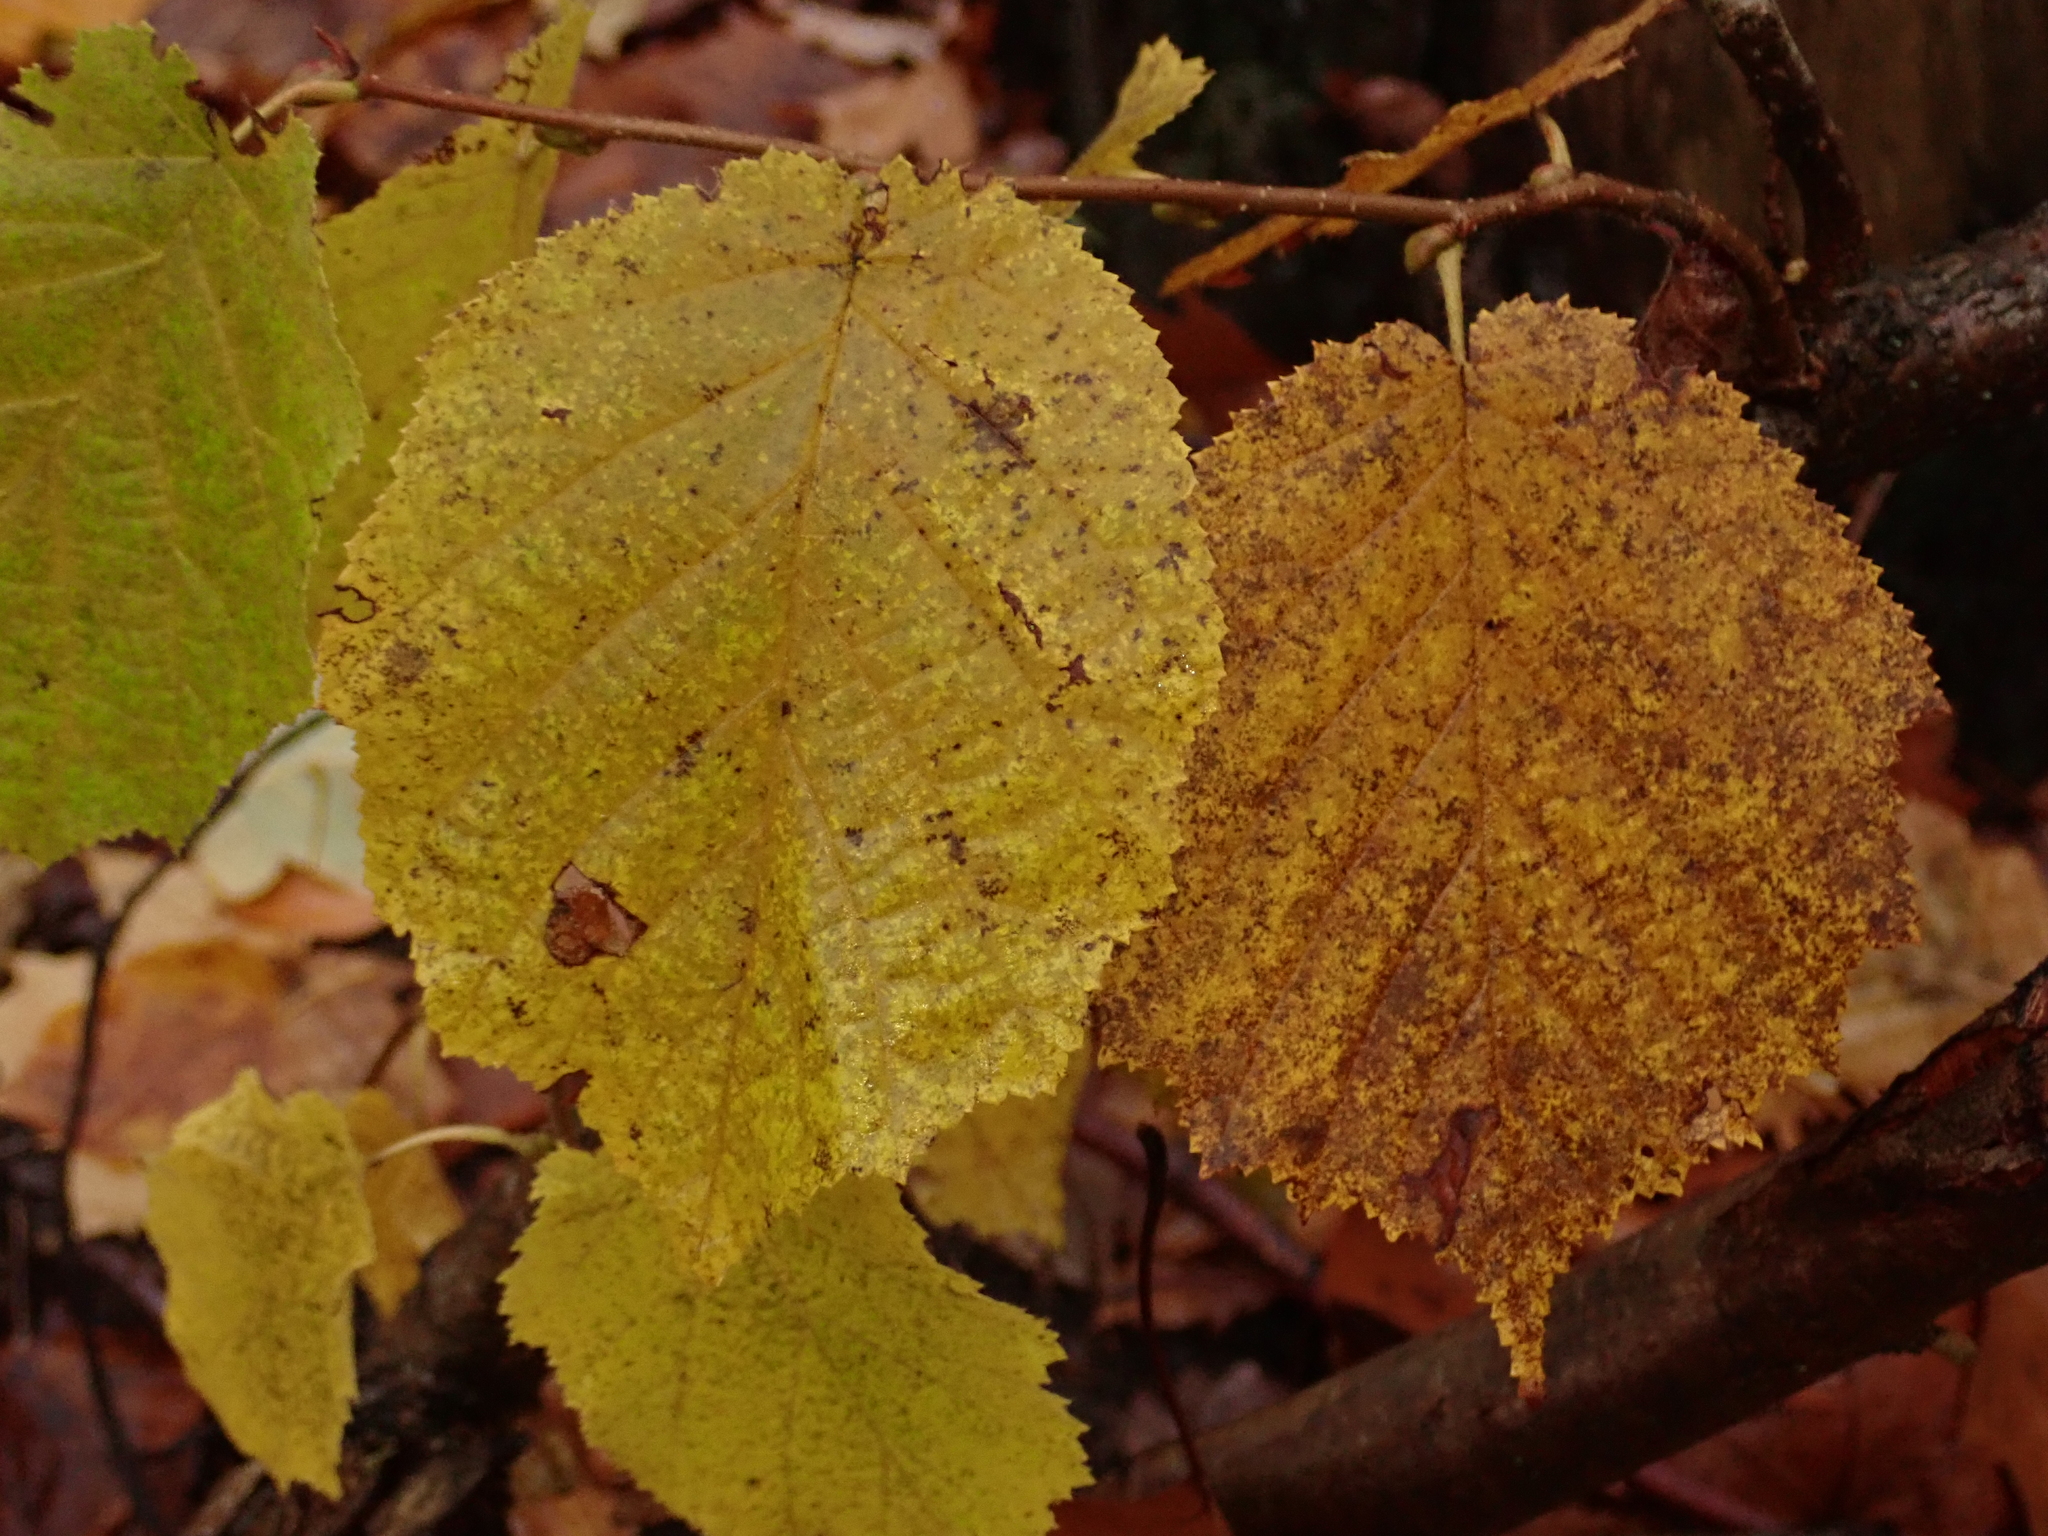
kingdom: Plantae
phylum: Tracheophyta
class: Magnoliopsida
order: Fagales
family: Betulaceae
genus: Corylus
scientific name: Corylus avellana
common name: European hazel
